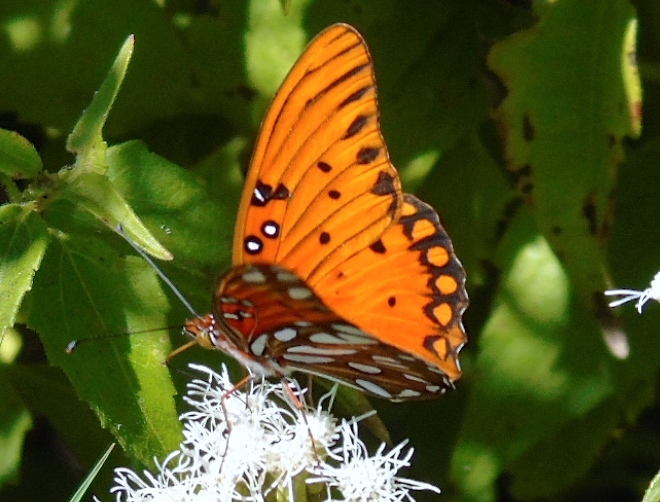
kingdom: Animalia
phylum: Arthropoda
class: Insecta
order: Lepidoptera
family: Nymphalidae
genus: Dione
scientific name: Dione vanillae
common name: Gulf fritillary
